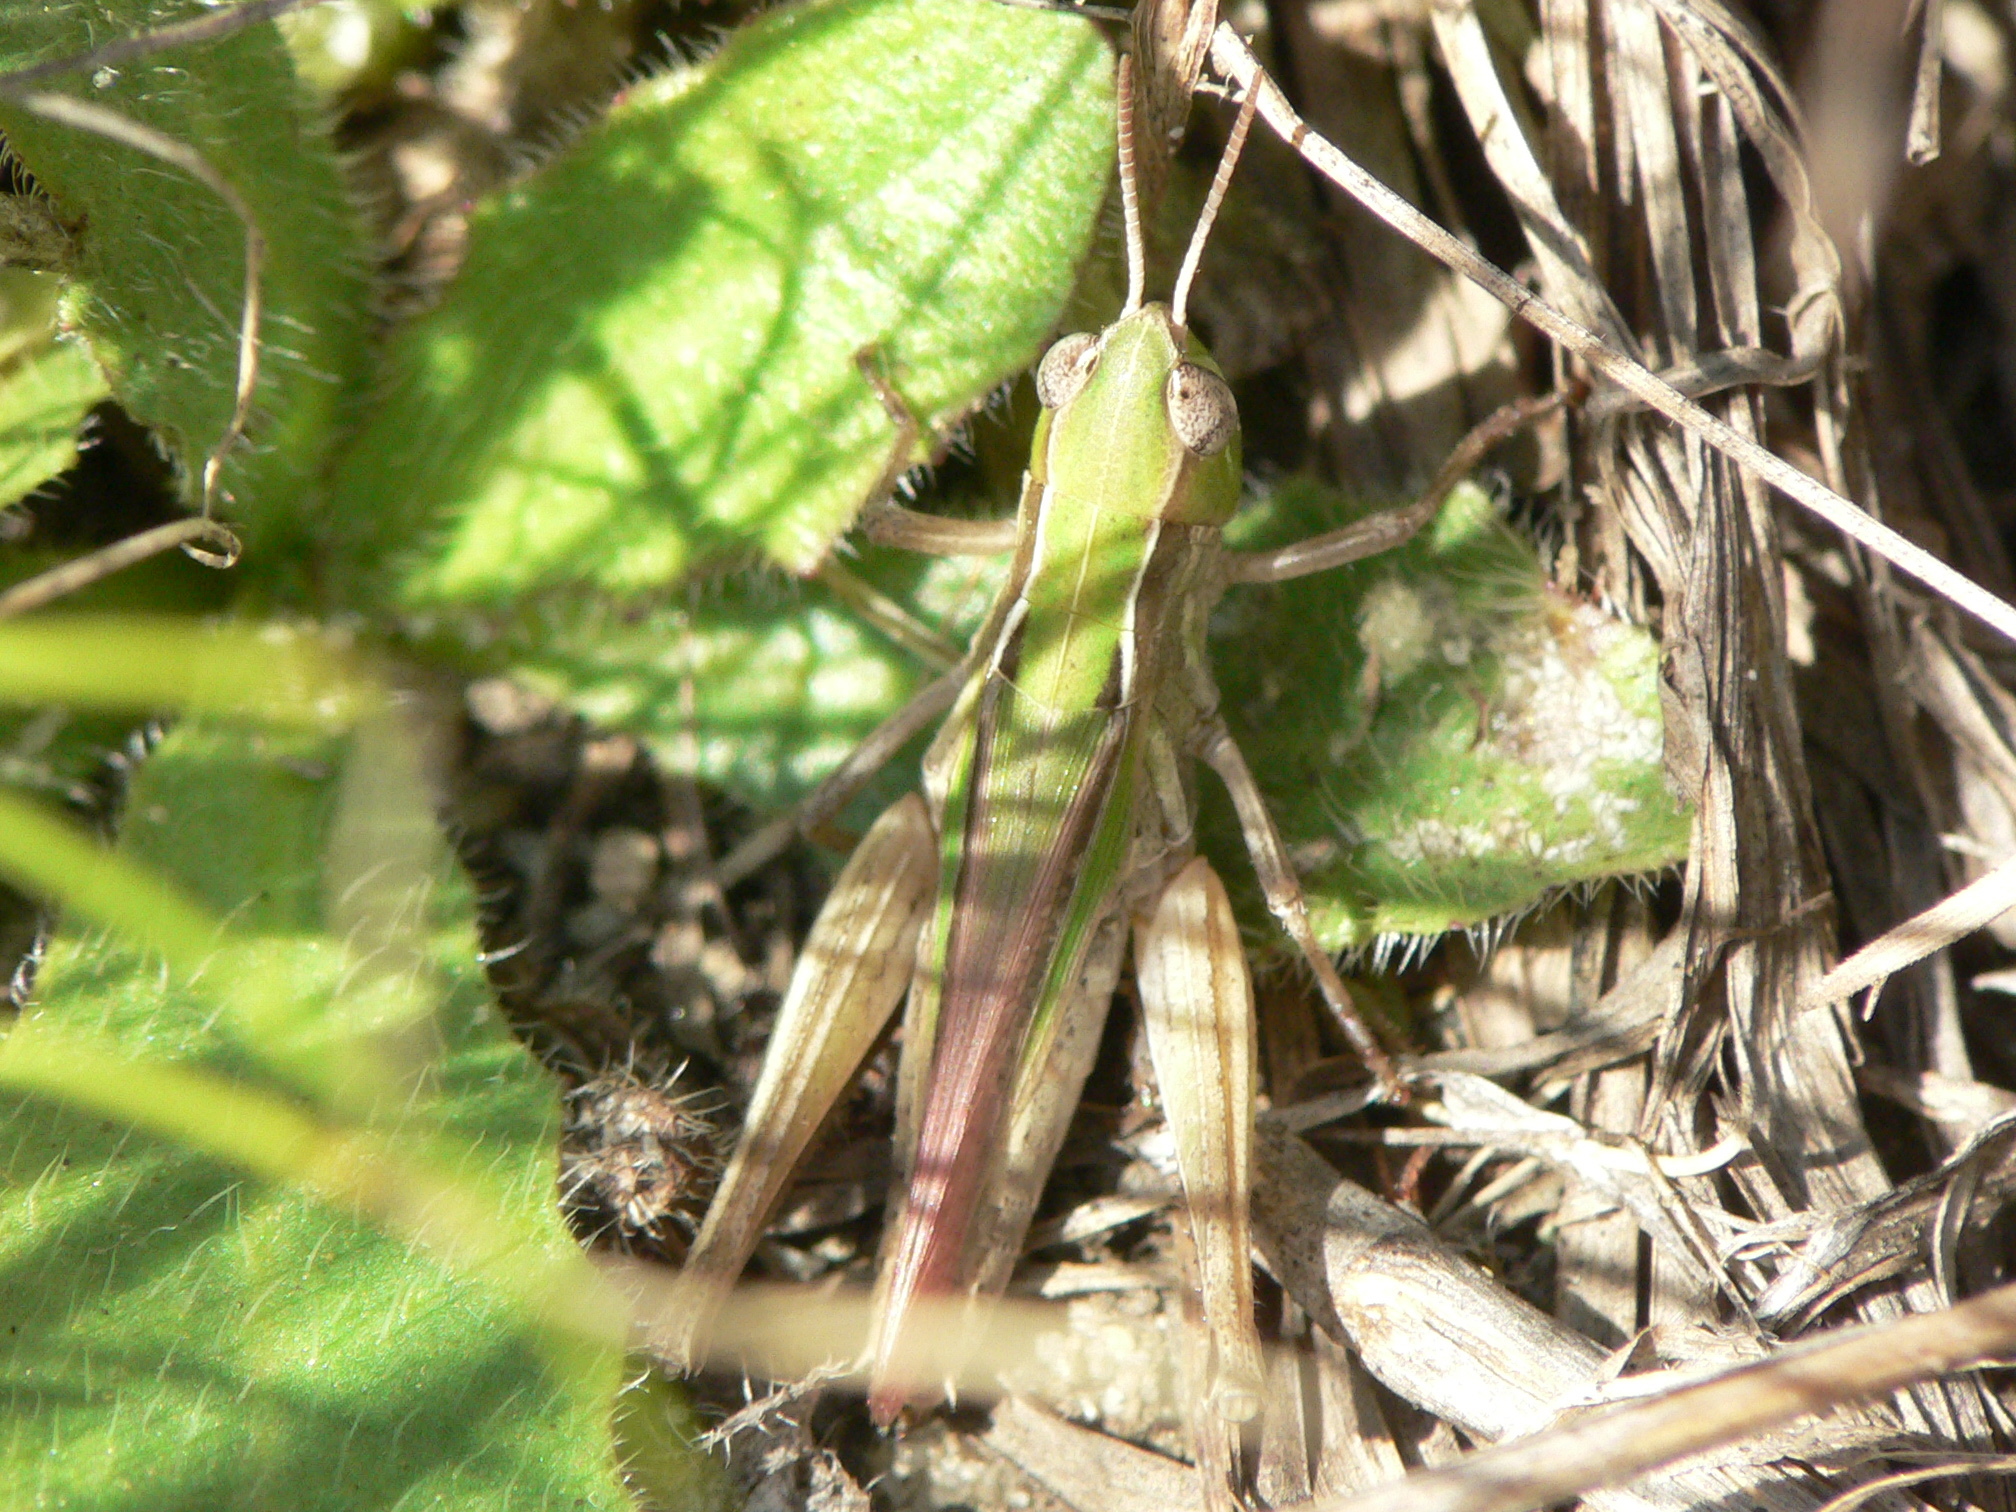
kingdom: Animalia
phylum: Arthropoda
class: Insecta
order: Orthoptera
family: Acrididae
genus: Orphulella
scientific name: Orphulella speciosa
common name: Pasture grasshopper
